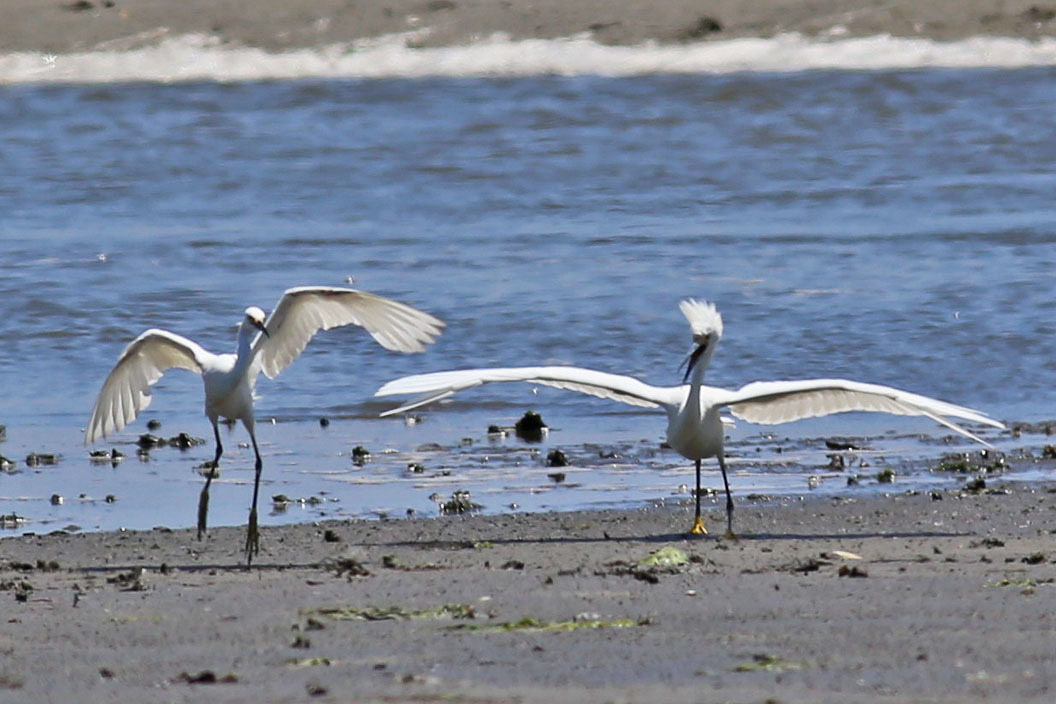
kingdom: Animalia
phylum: Chordata
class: Aves
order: Pelecaniformes
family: Ardeidae
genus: Egretta
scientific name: Egretta thula
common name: Snowy egret
